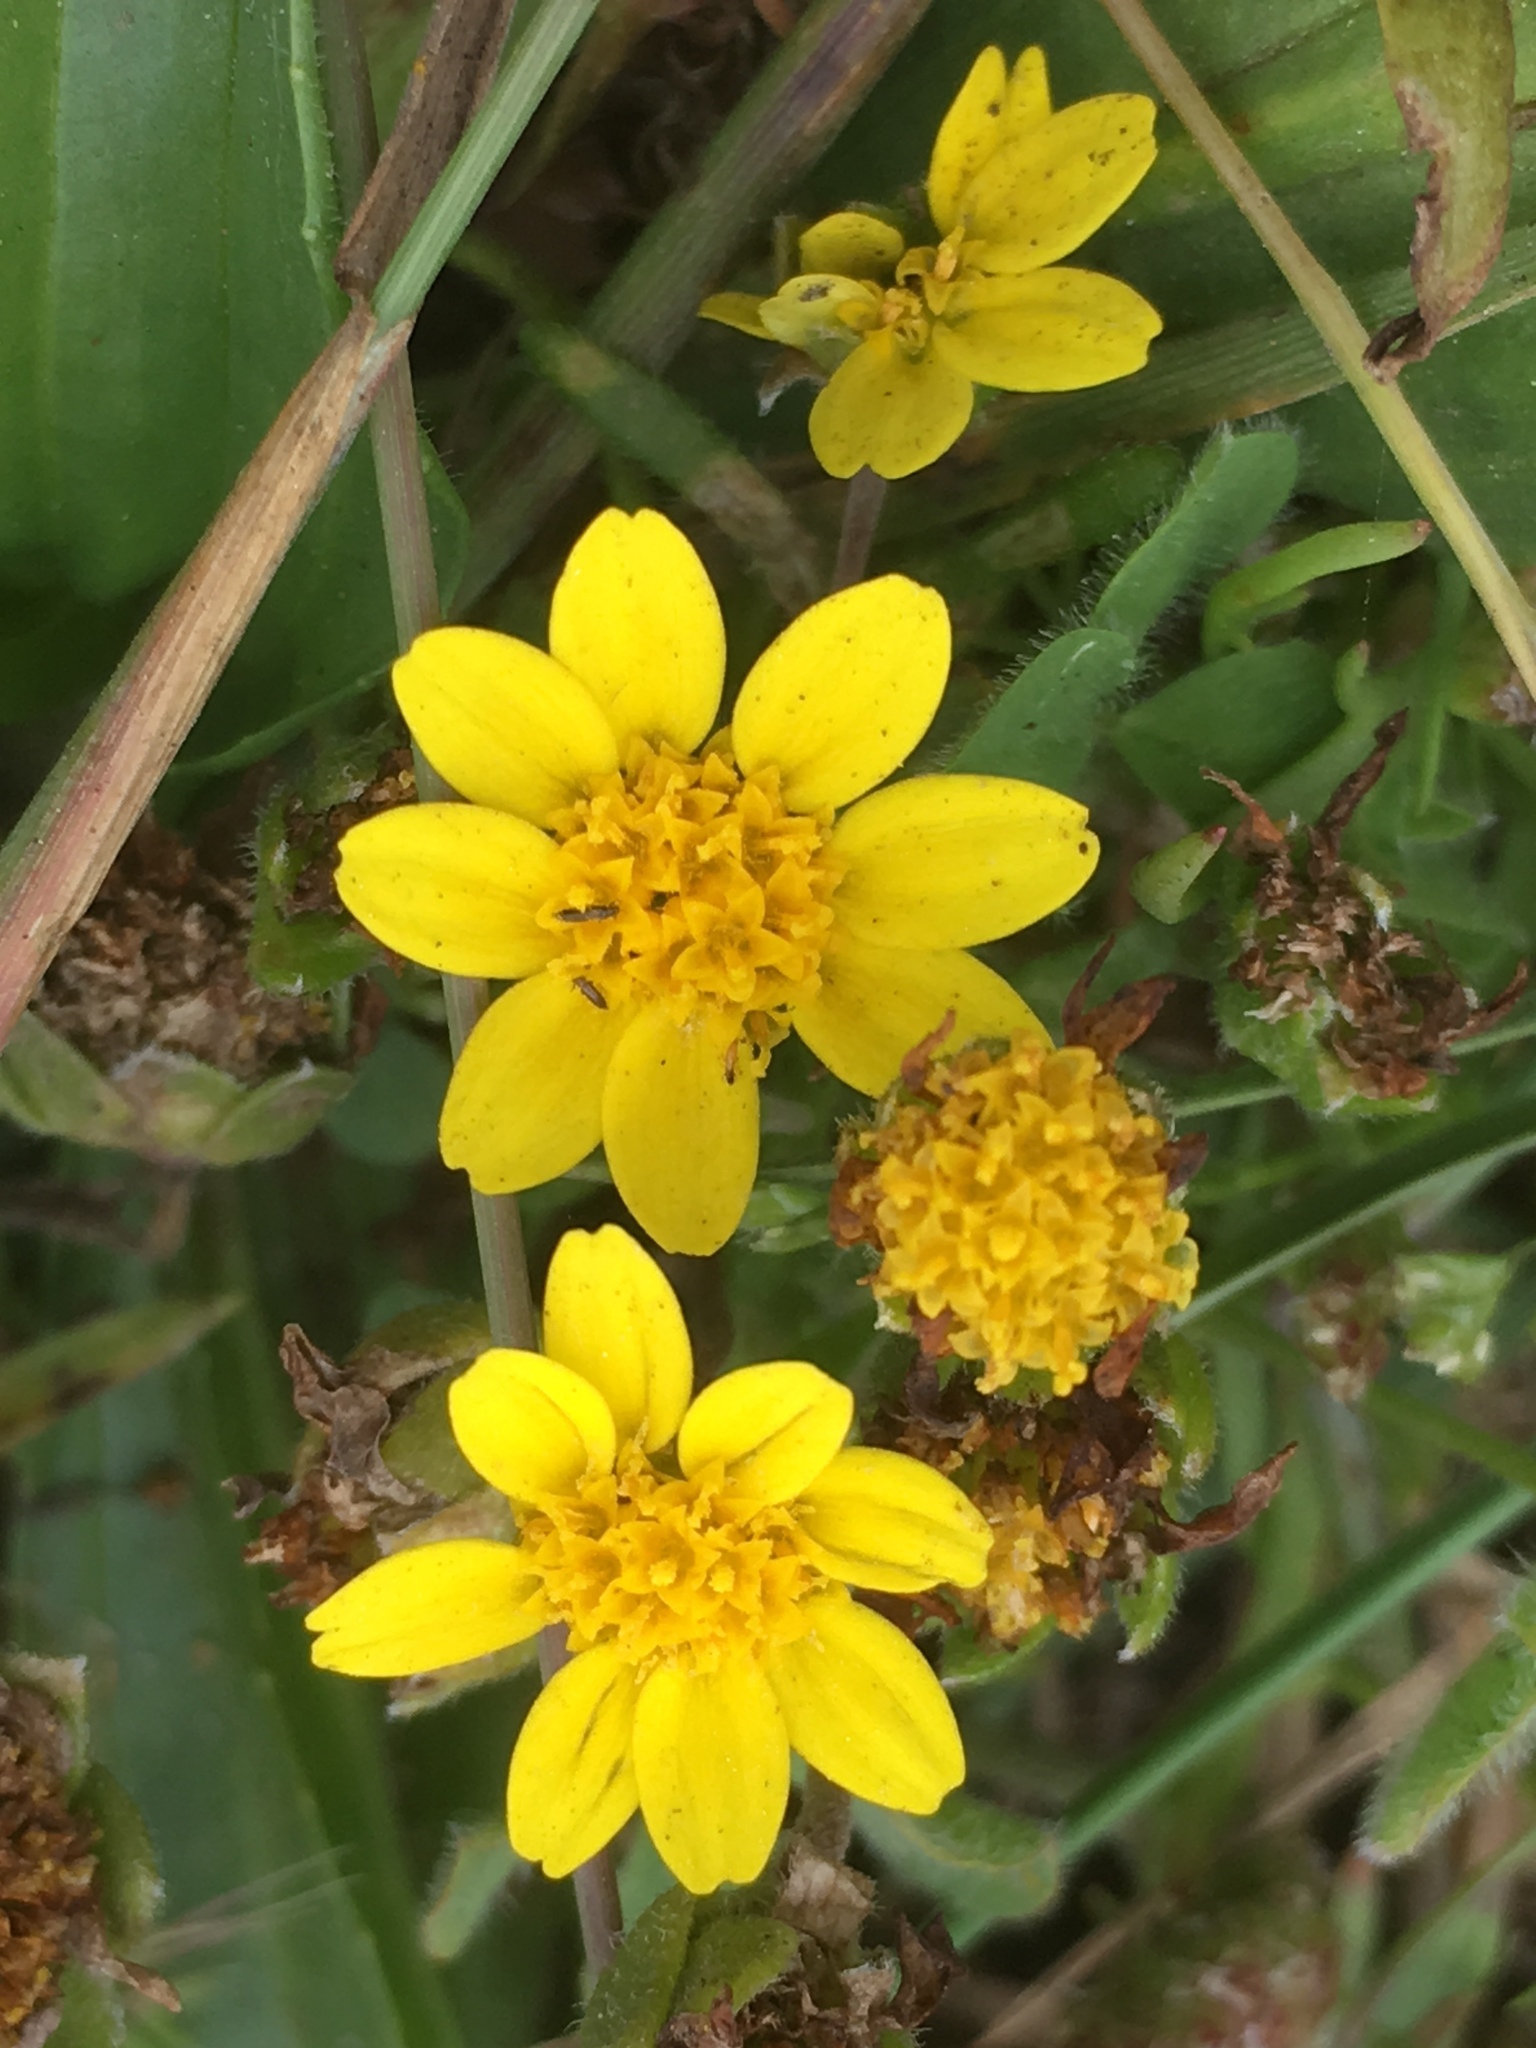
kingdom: Plantae
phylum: Tracheophyta
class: Magnoliopsida
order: Asterales
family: Asteraceae
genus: Lasthenia
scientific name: Lasthenia californica
